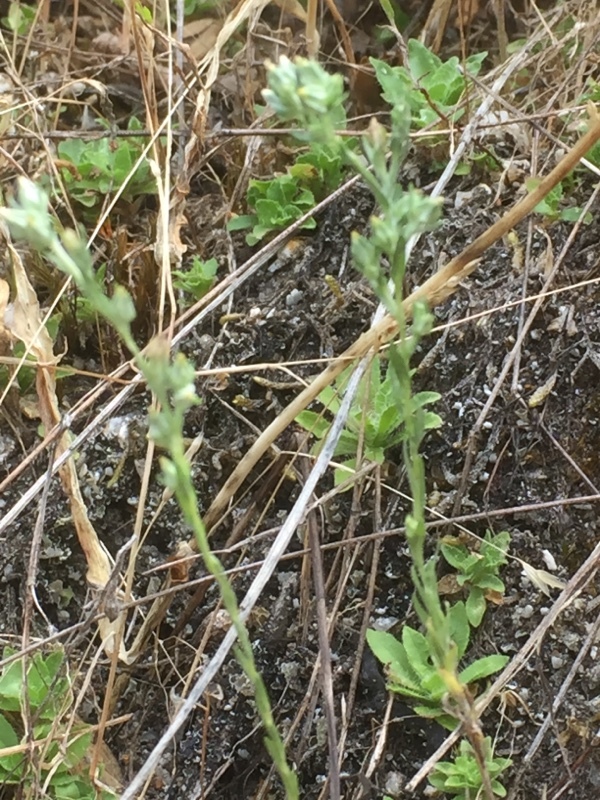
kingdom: Plantae
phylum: Tracheophyta
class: Magnoliopsida
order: Asterales
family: Asteraceae
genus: Logfia
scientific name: Logfia minima
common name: Little cottonrose
